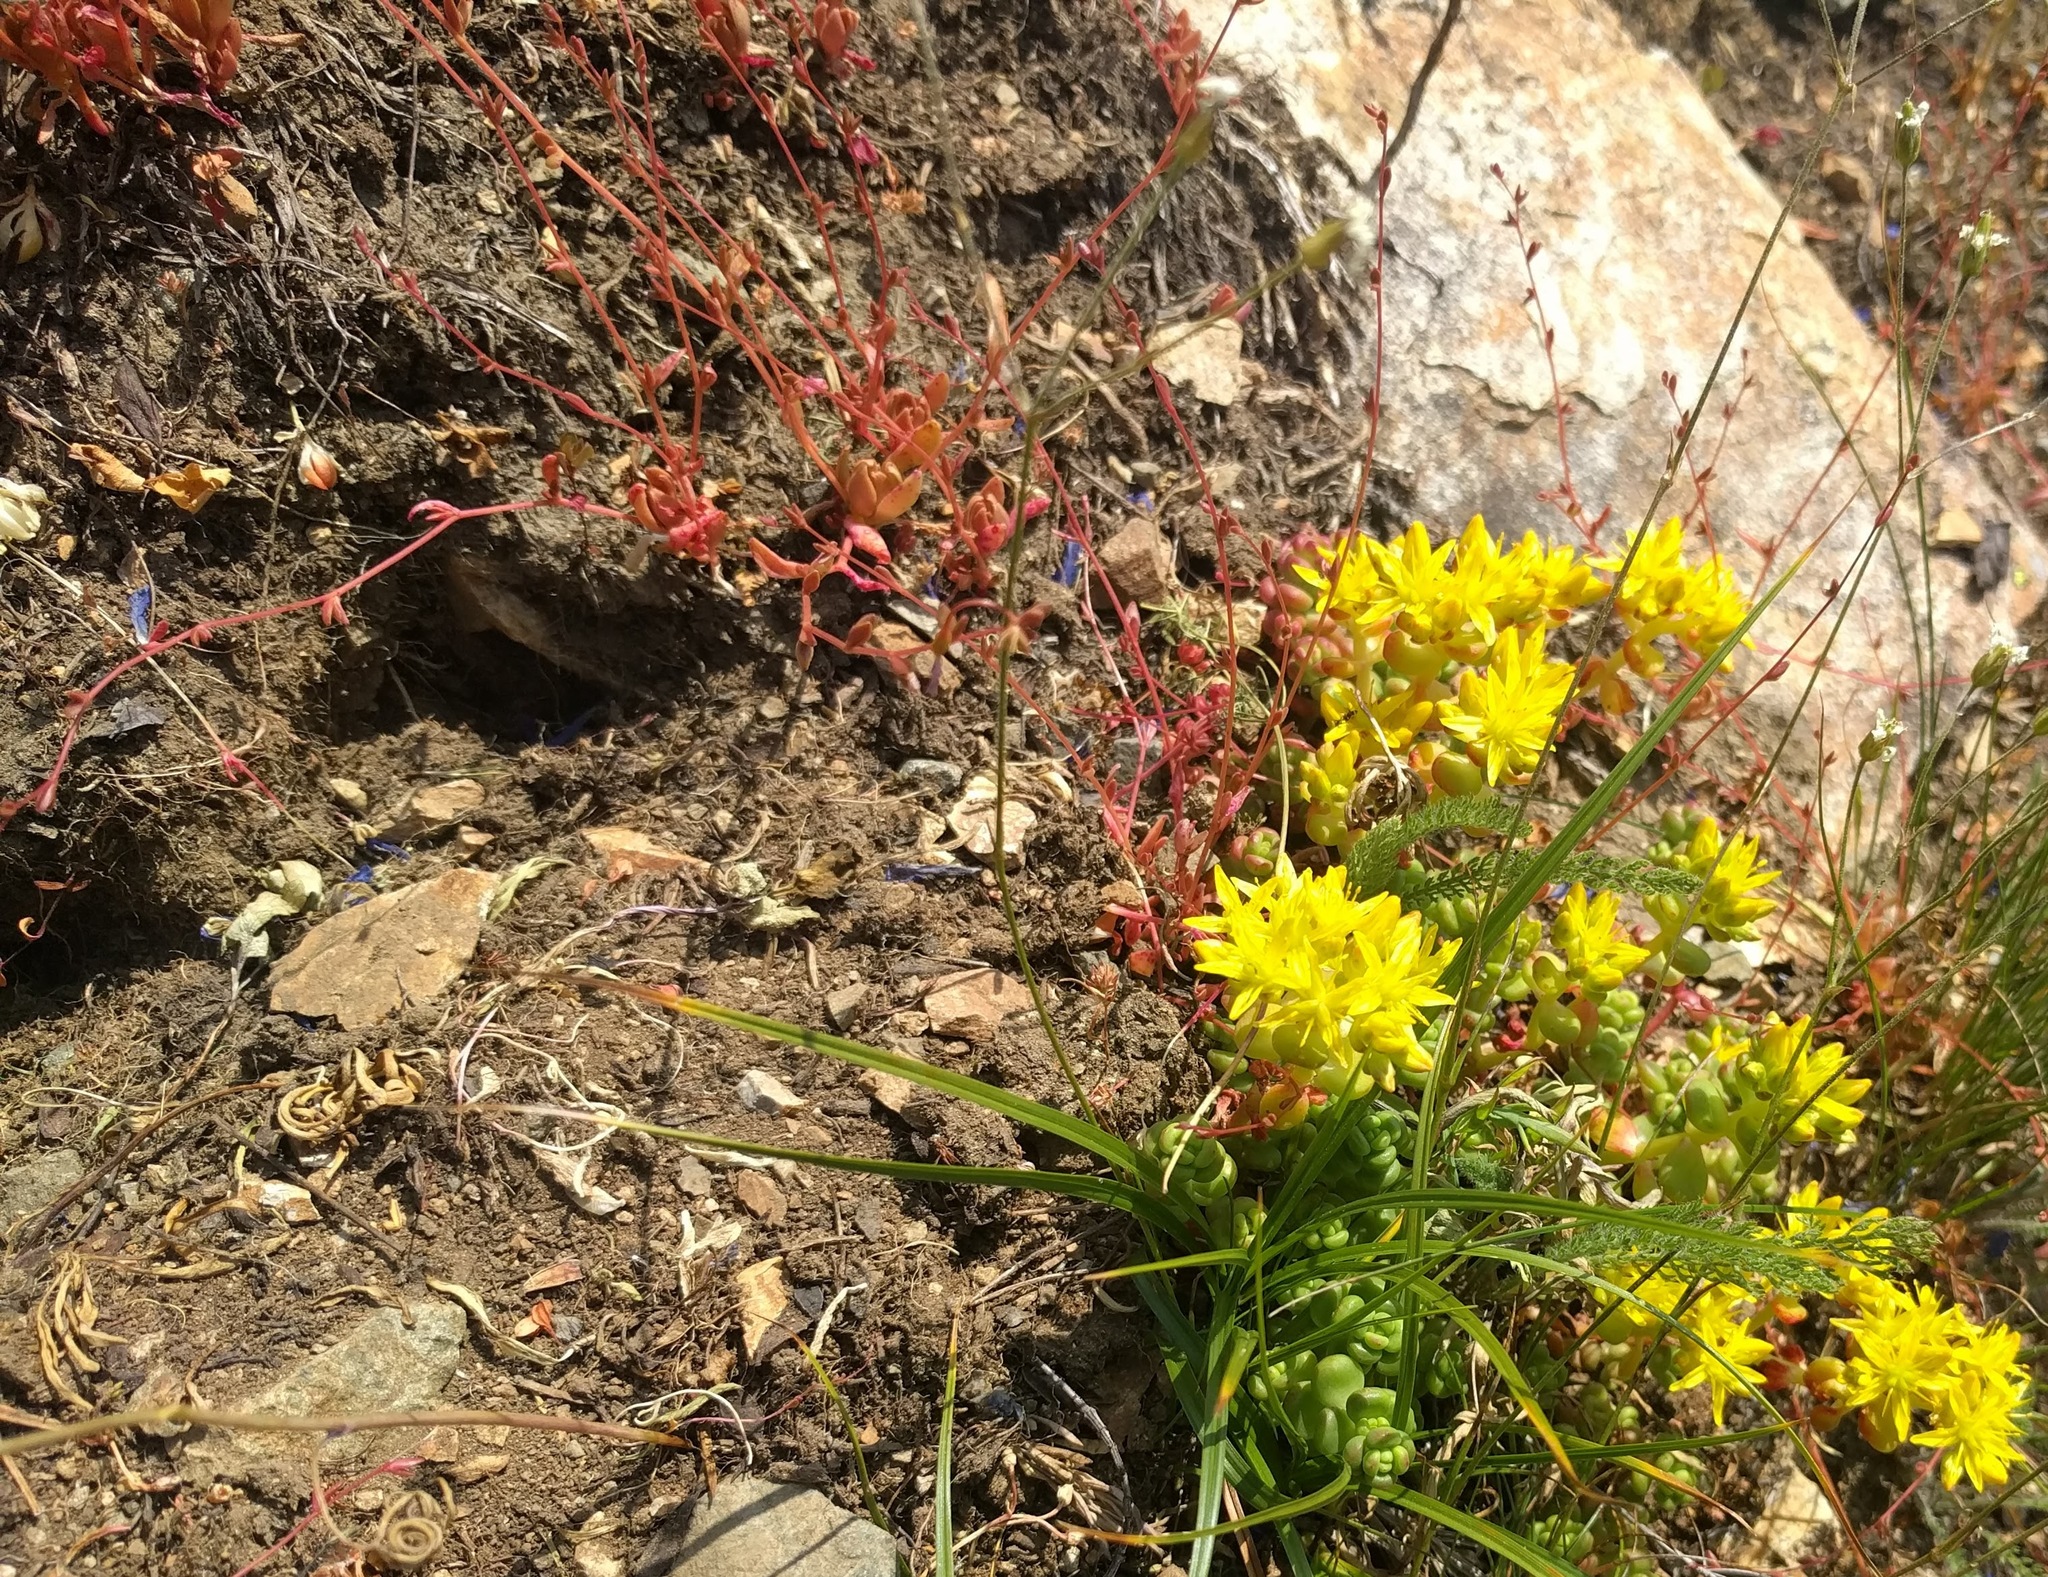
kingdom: Plantae
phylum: Tracheophyta
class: Magnoliopsida
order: Saxifragales
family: Crassulaceae
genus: Sedum
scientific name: Sedum divergens
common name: Cascade stonecrop
